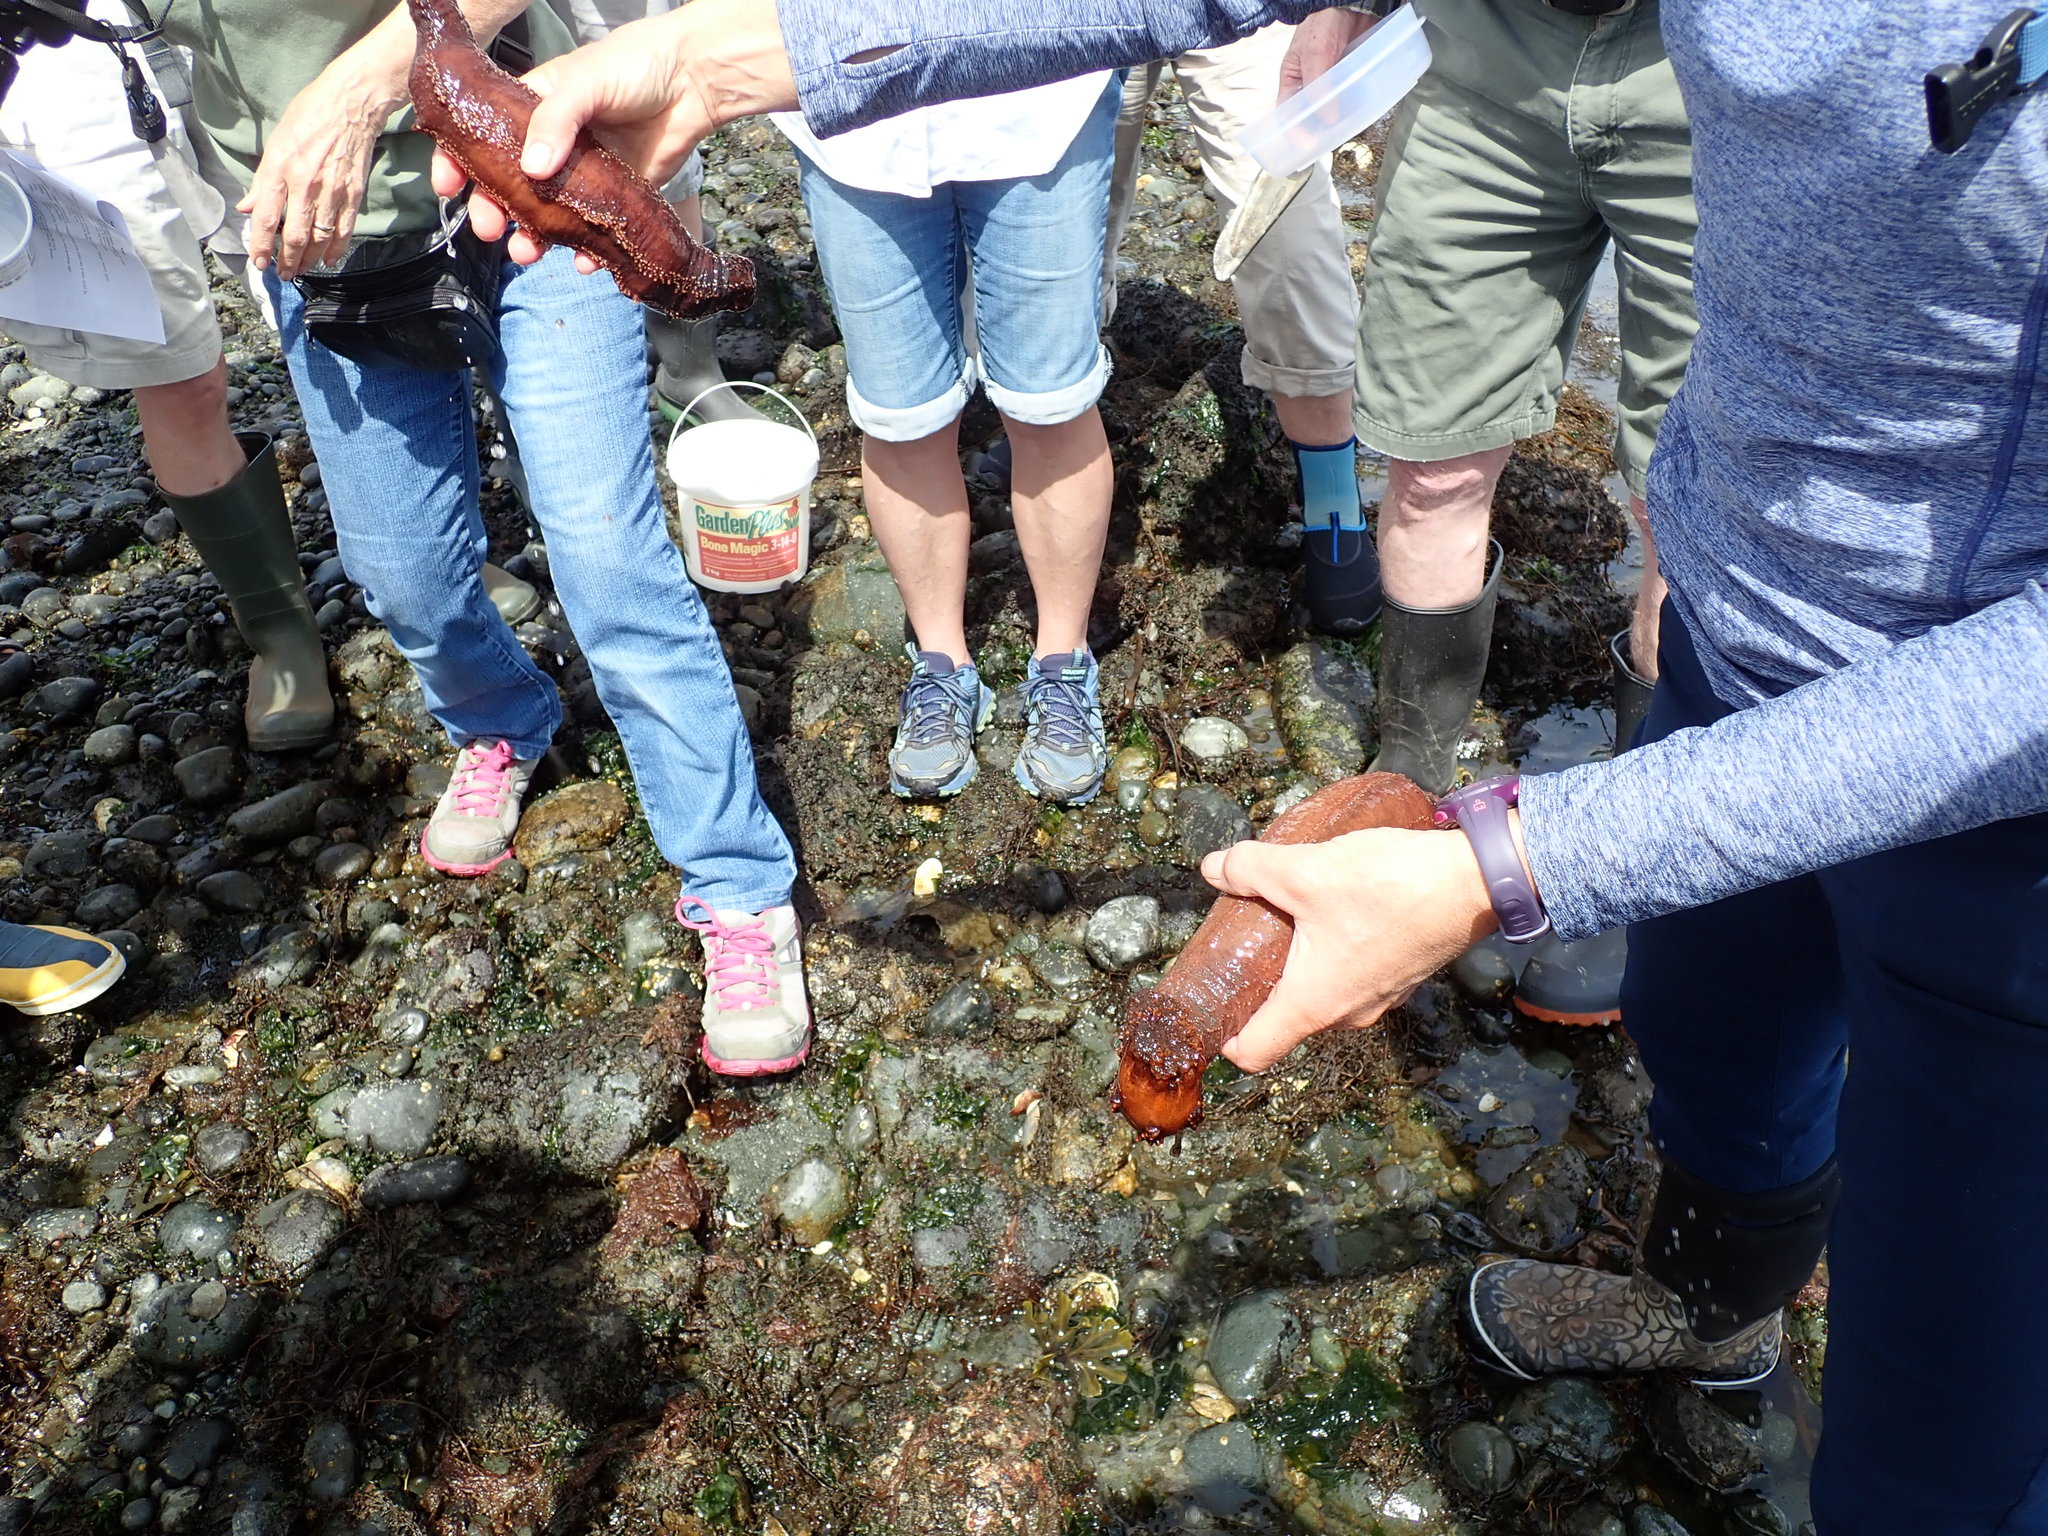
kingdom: Animalia
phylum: Echinodermata
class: Holothuroidea
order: Dendrochirotida
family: Cucumariidae
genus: Cucumaria
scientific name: Cucumaria miniata
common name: Orange sea cucumber
